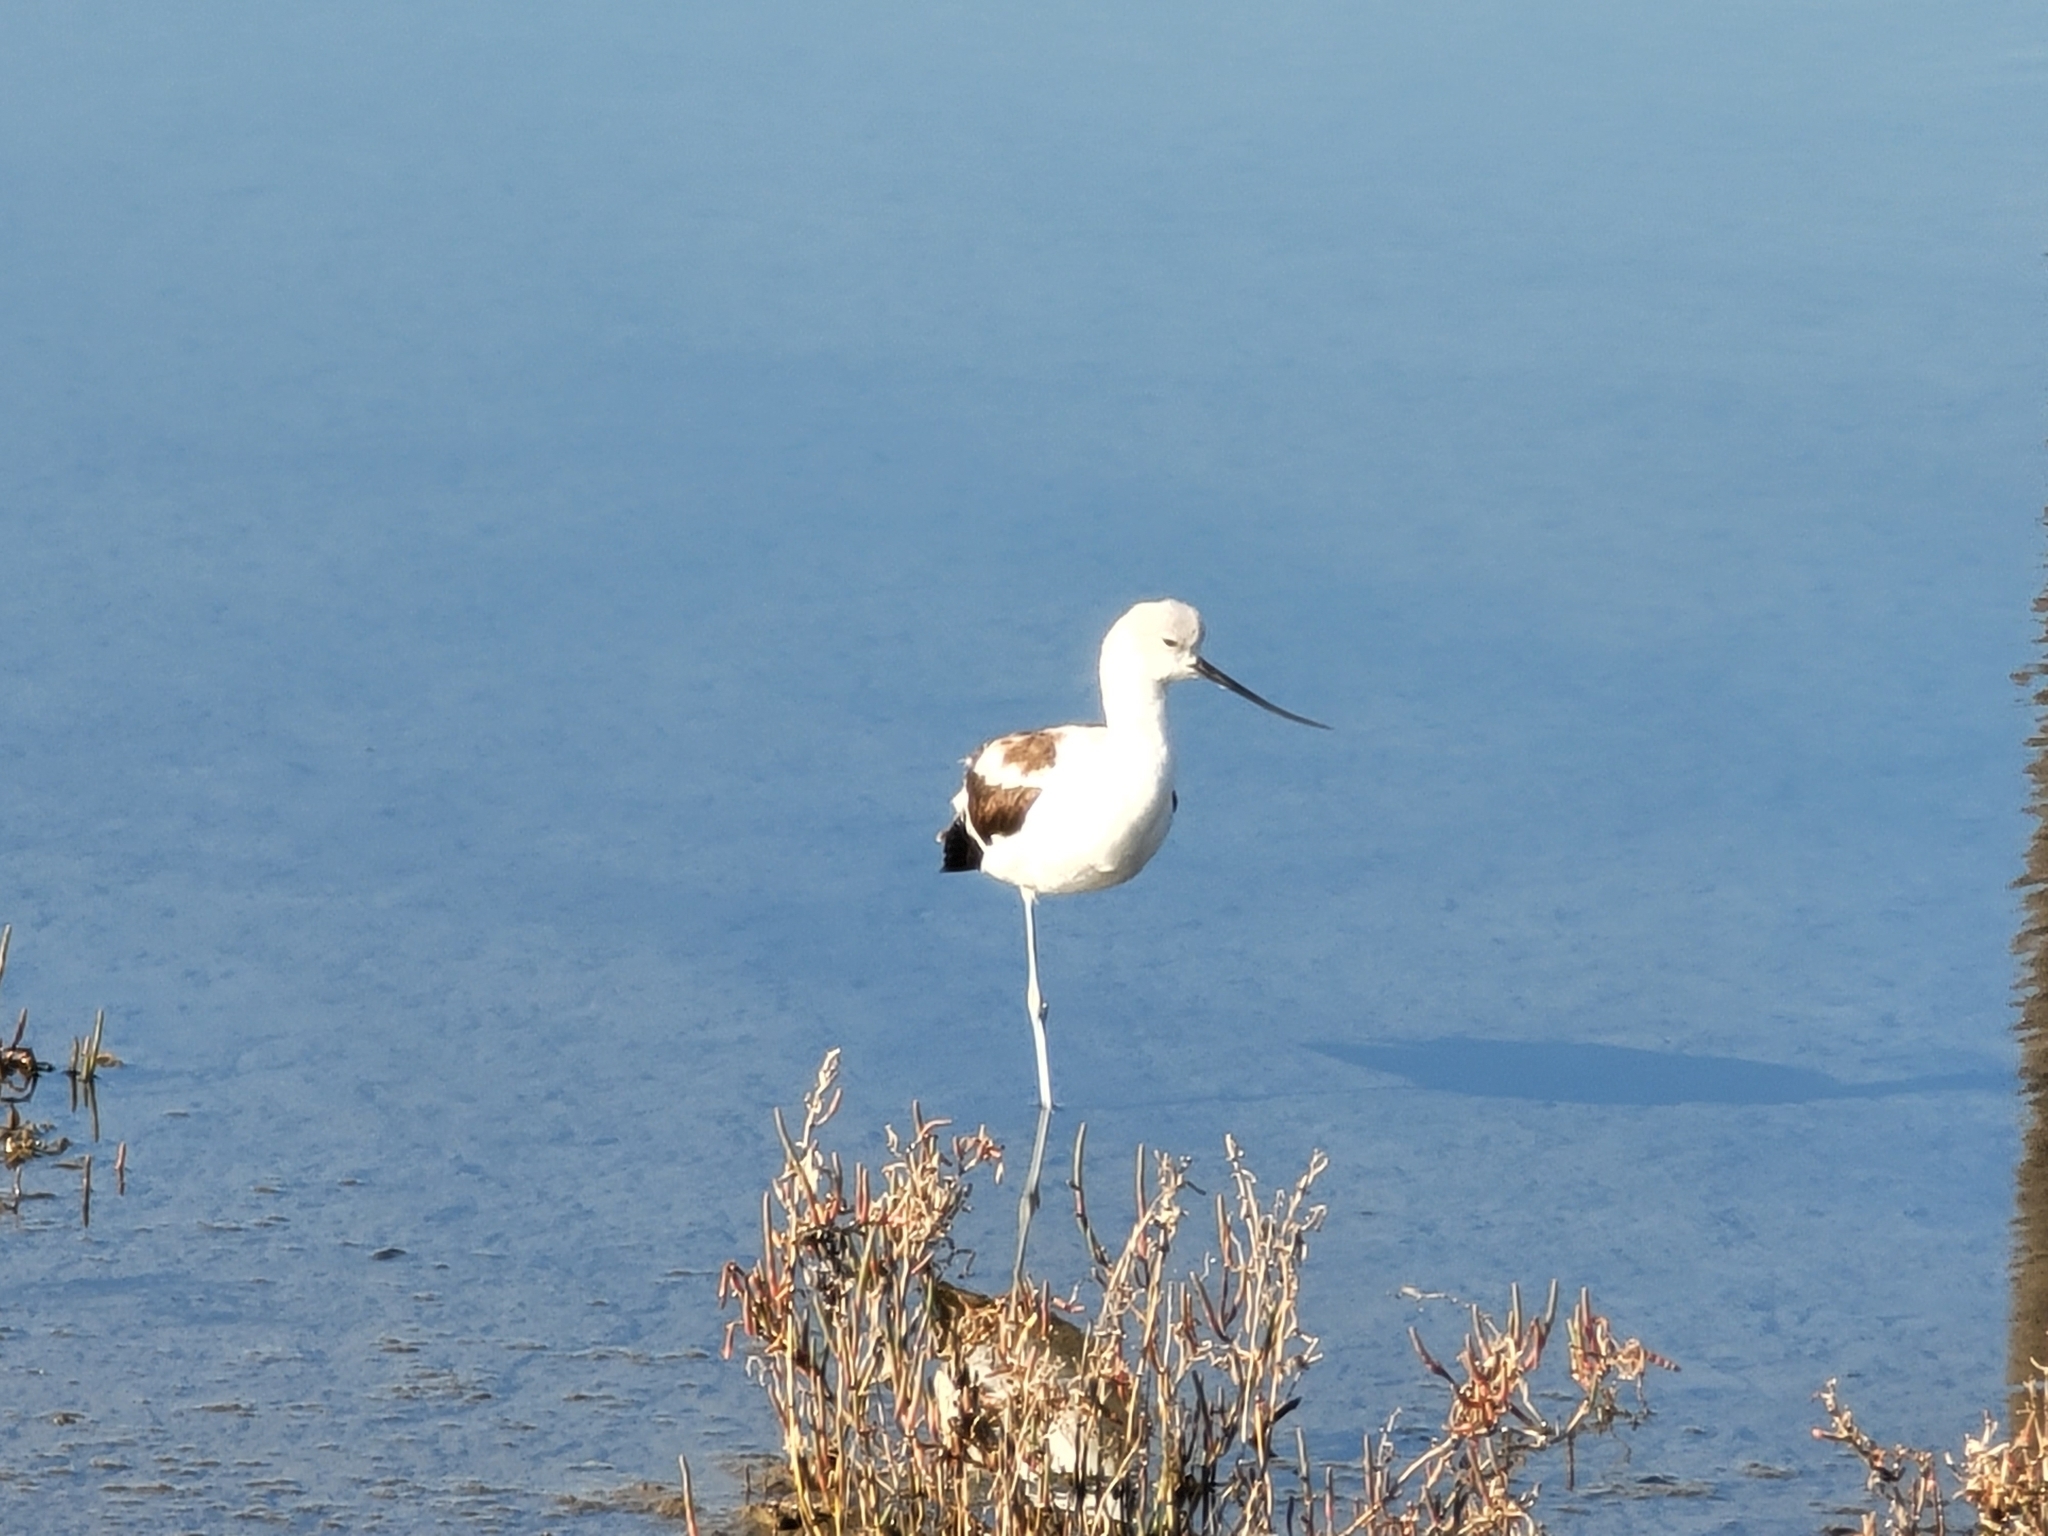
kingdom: Animalia
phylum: Chordata
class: Aves
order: Charadriiformes
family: Recurvirostridae
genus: Recurvirostra
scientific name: Recurvirostra americana
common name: American avocet
